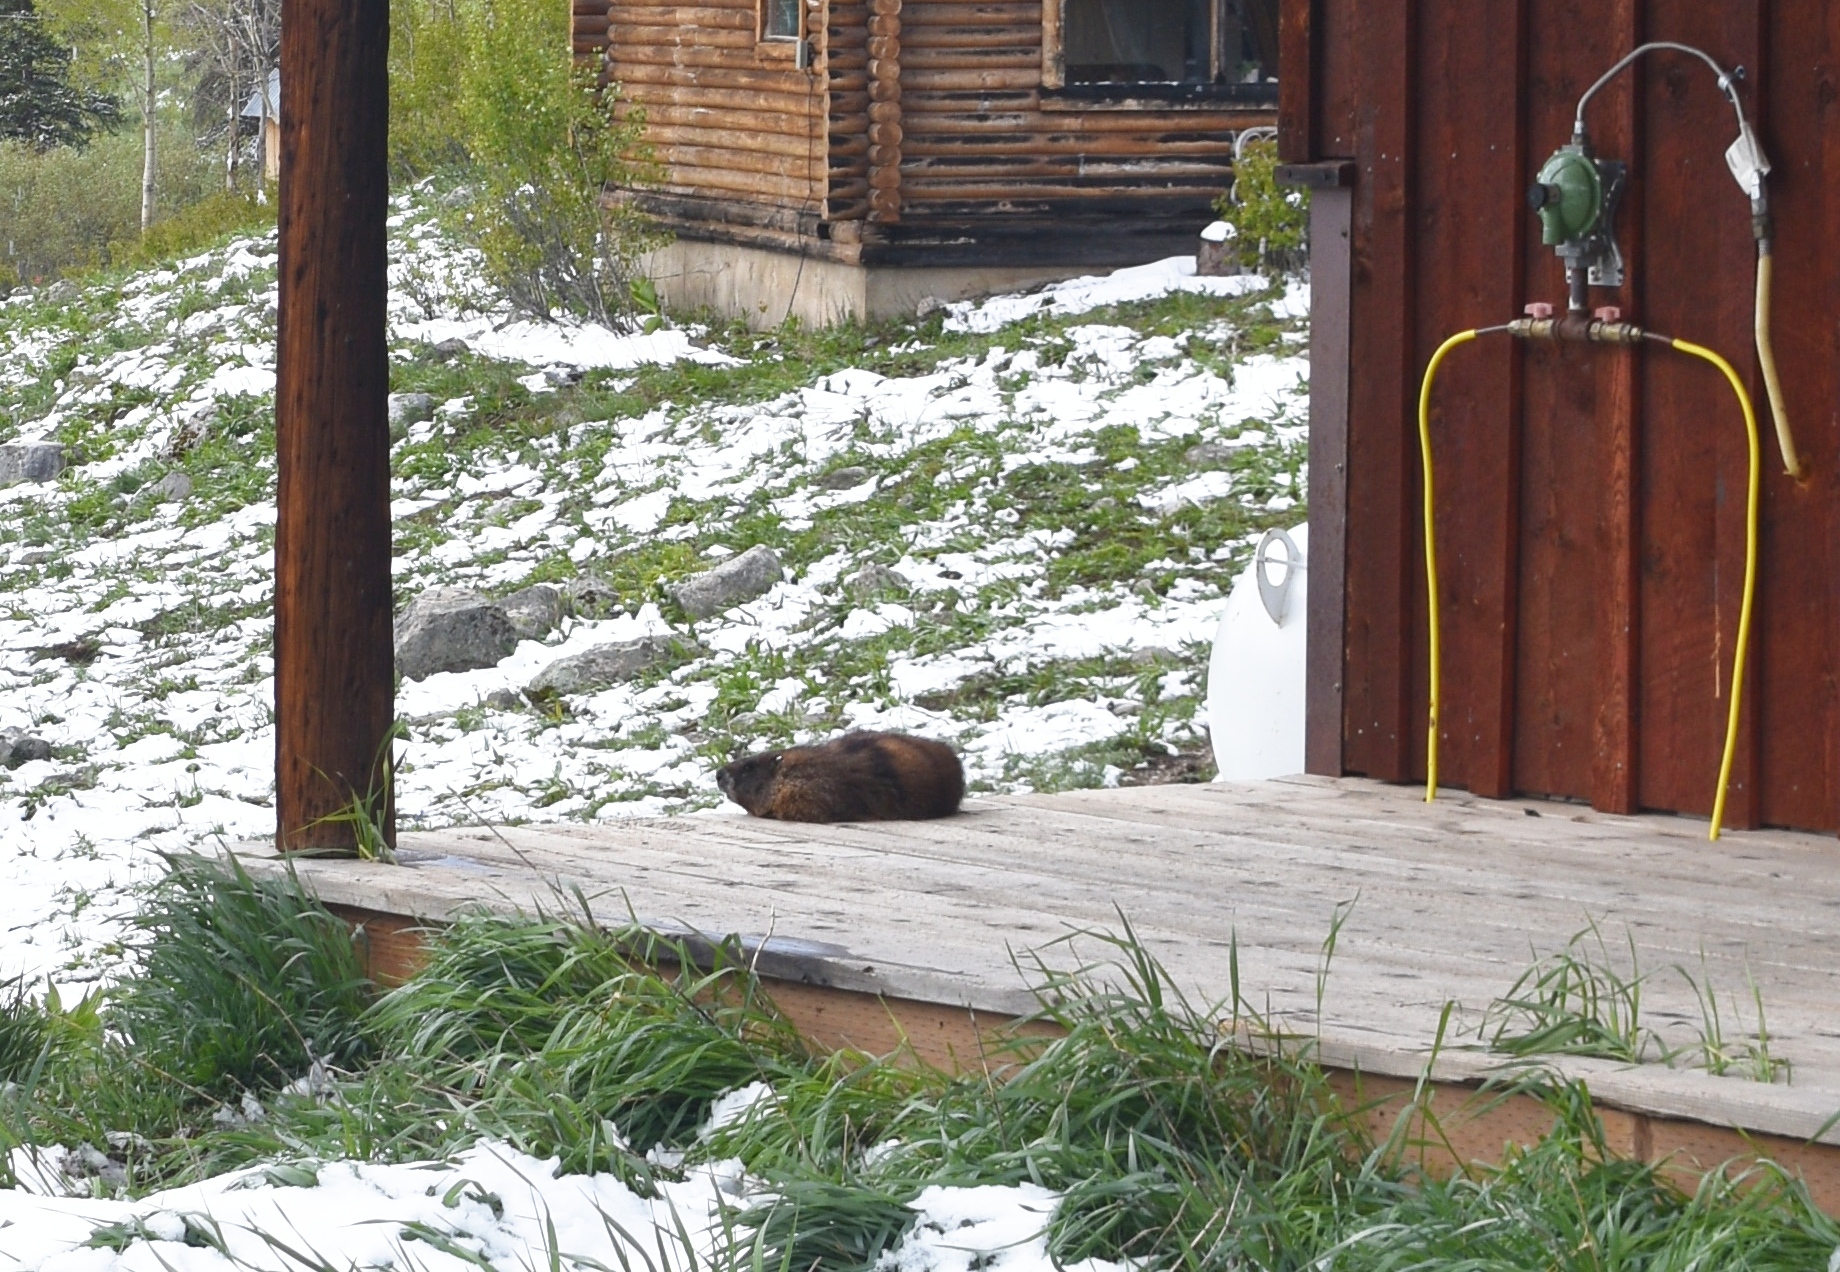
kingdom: Animalia
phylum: Chordata
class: Mammalia
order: Rodentia
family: Sciuridae
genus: Marmota
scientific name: Marmota flaviventris
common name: Yellow-bellied marmot
